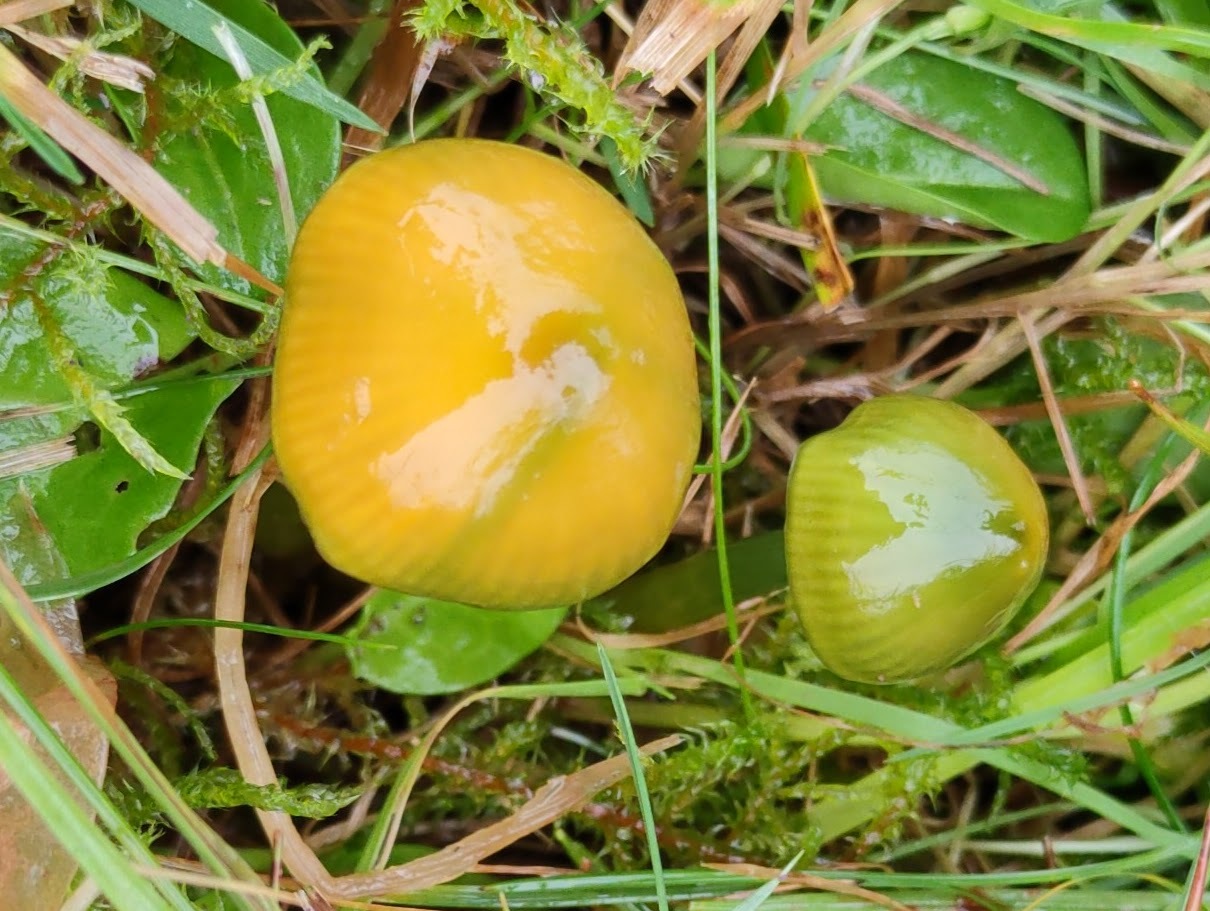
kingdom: Fungi
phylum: Basidiomycota
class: Agaricomycetes
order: Agaricales
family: Hygrophoraceae
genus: Gliophorus
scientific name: Gliophorus psittacinus
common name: Parrot wax-cap
